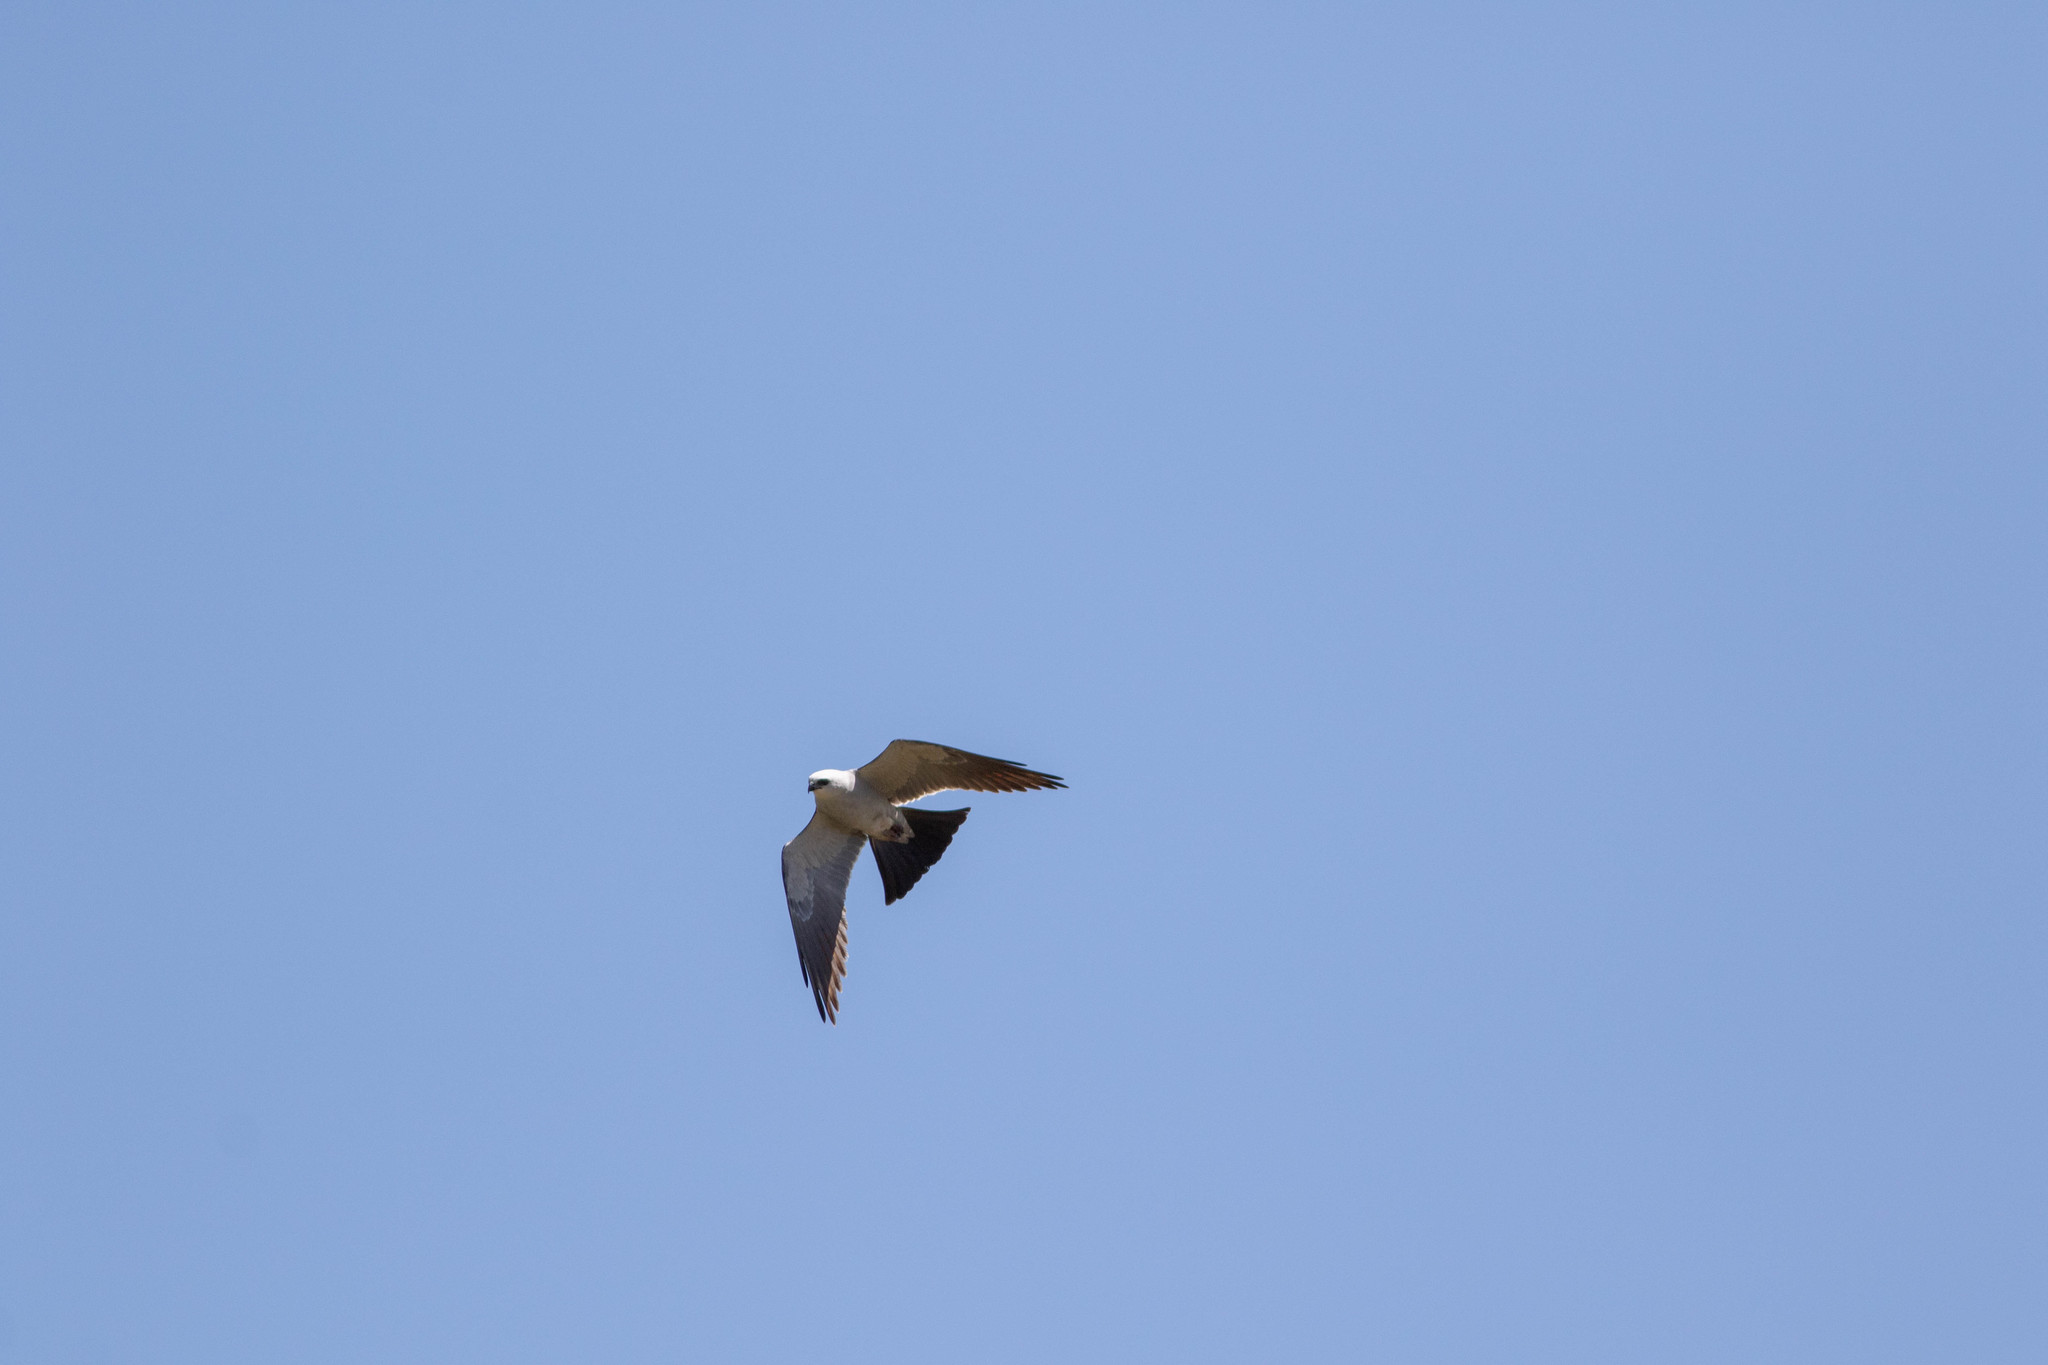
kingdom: Animalia
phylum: Chordata
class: Aves
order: Accipitriformes
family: Accipitridae
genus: Ictinia
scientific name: Ictinia mississippiensis
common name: Mississippi kite
